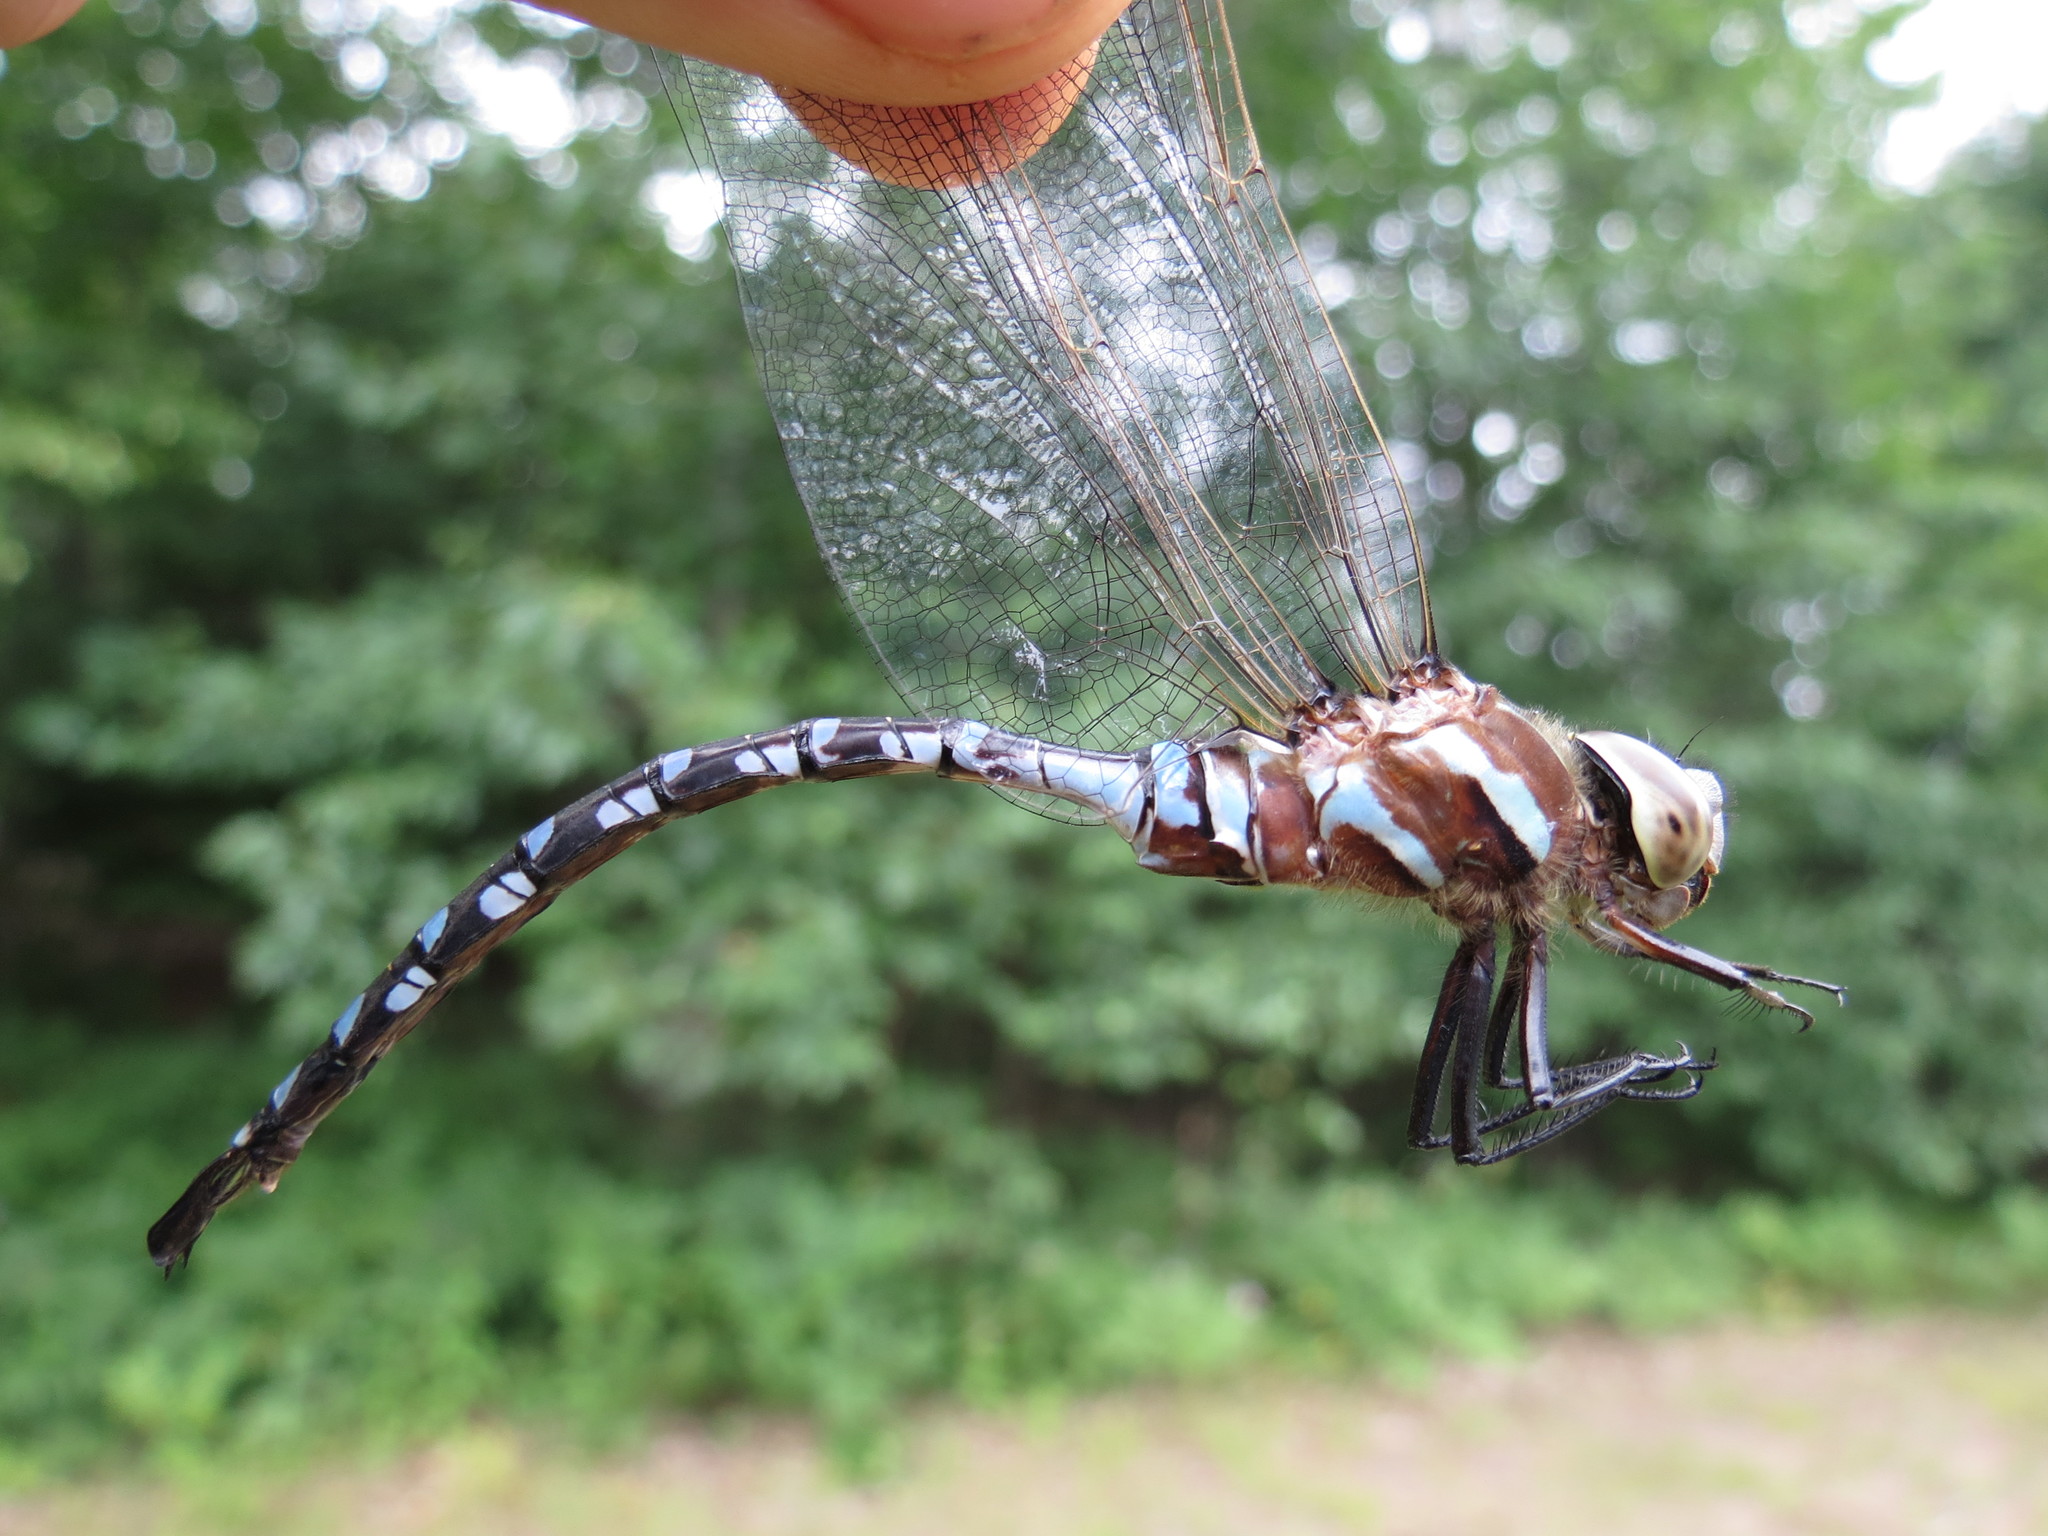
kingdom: Animalia
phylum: Arthropoda
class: Insecta
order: Odonata
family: Aeshnidae
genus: Aeshna
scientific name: Aeshna constricta
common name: Lance-tipped darner
